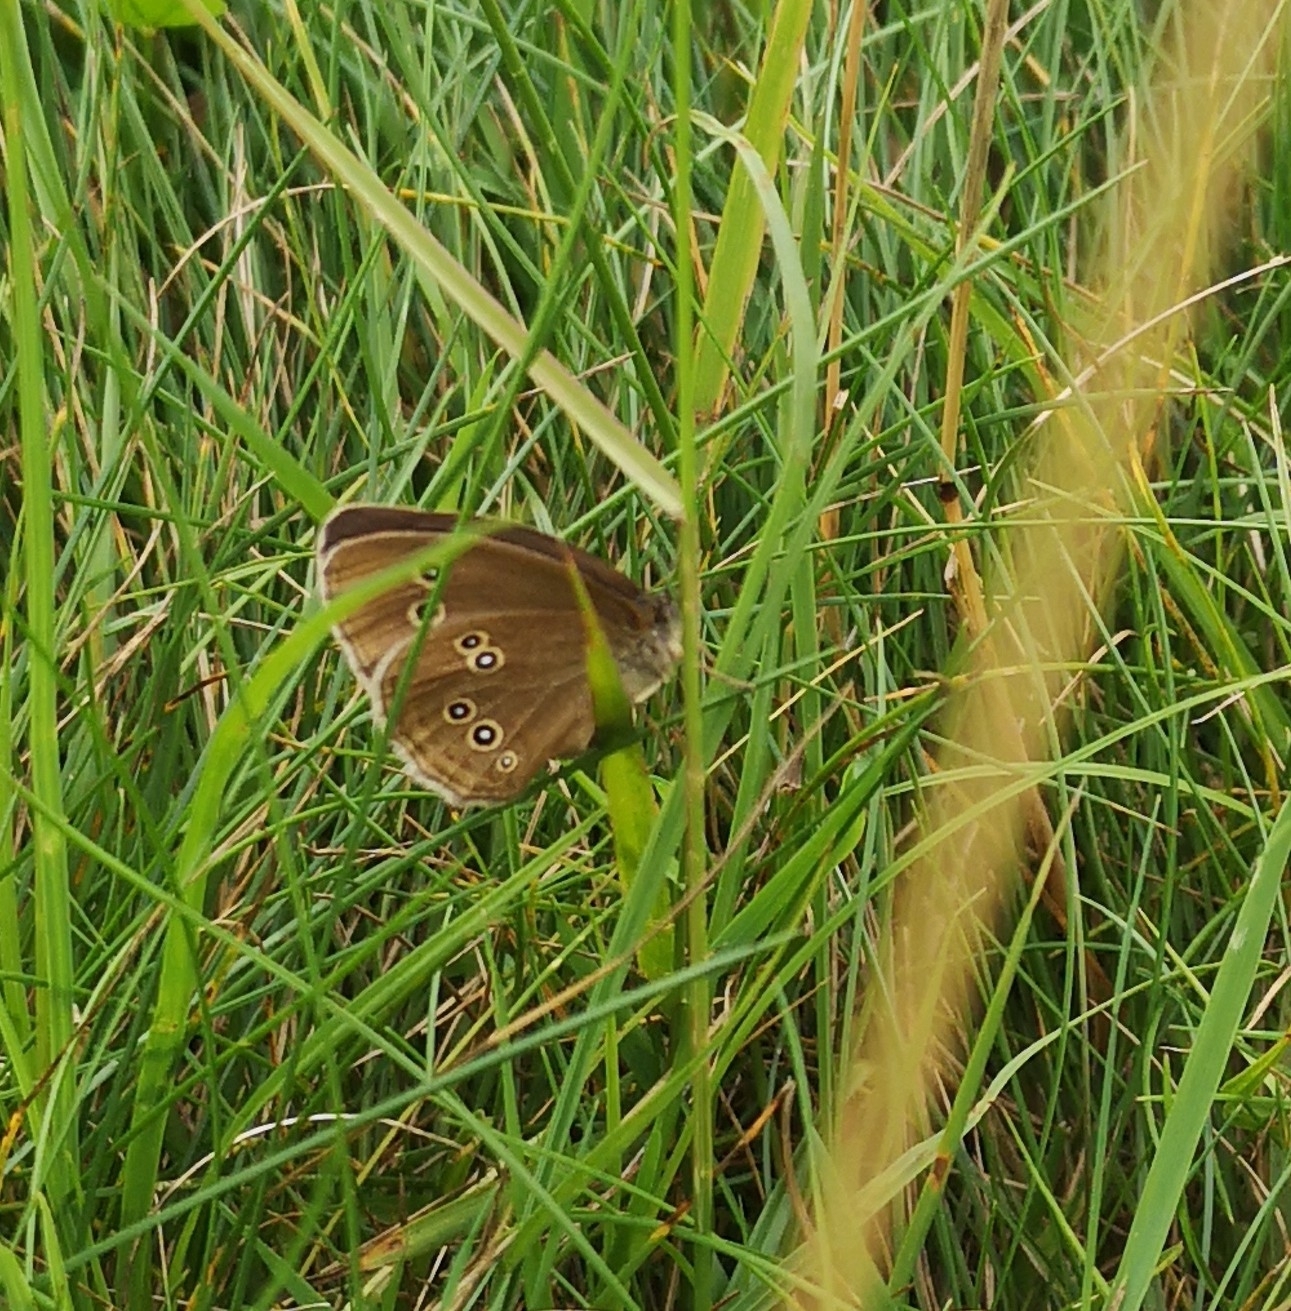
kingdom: Animalia
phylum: Arthropoda
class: Insecta
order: Lepidoptera
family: Nymphalidae
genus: Aphantopus
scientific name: Aphantopus hyperantus
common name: Ringlet
